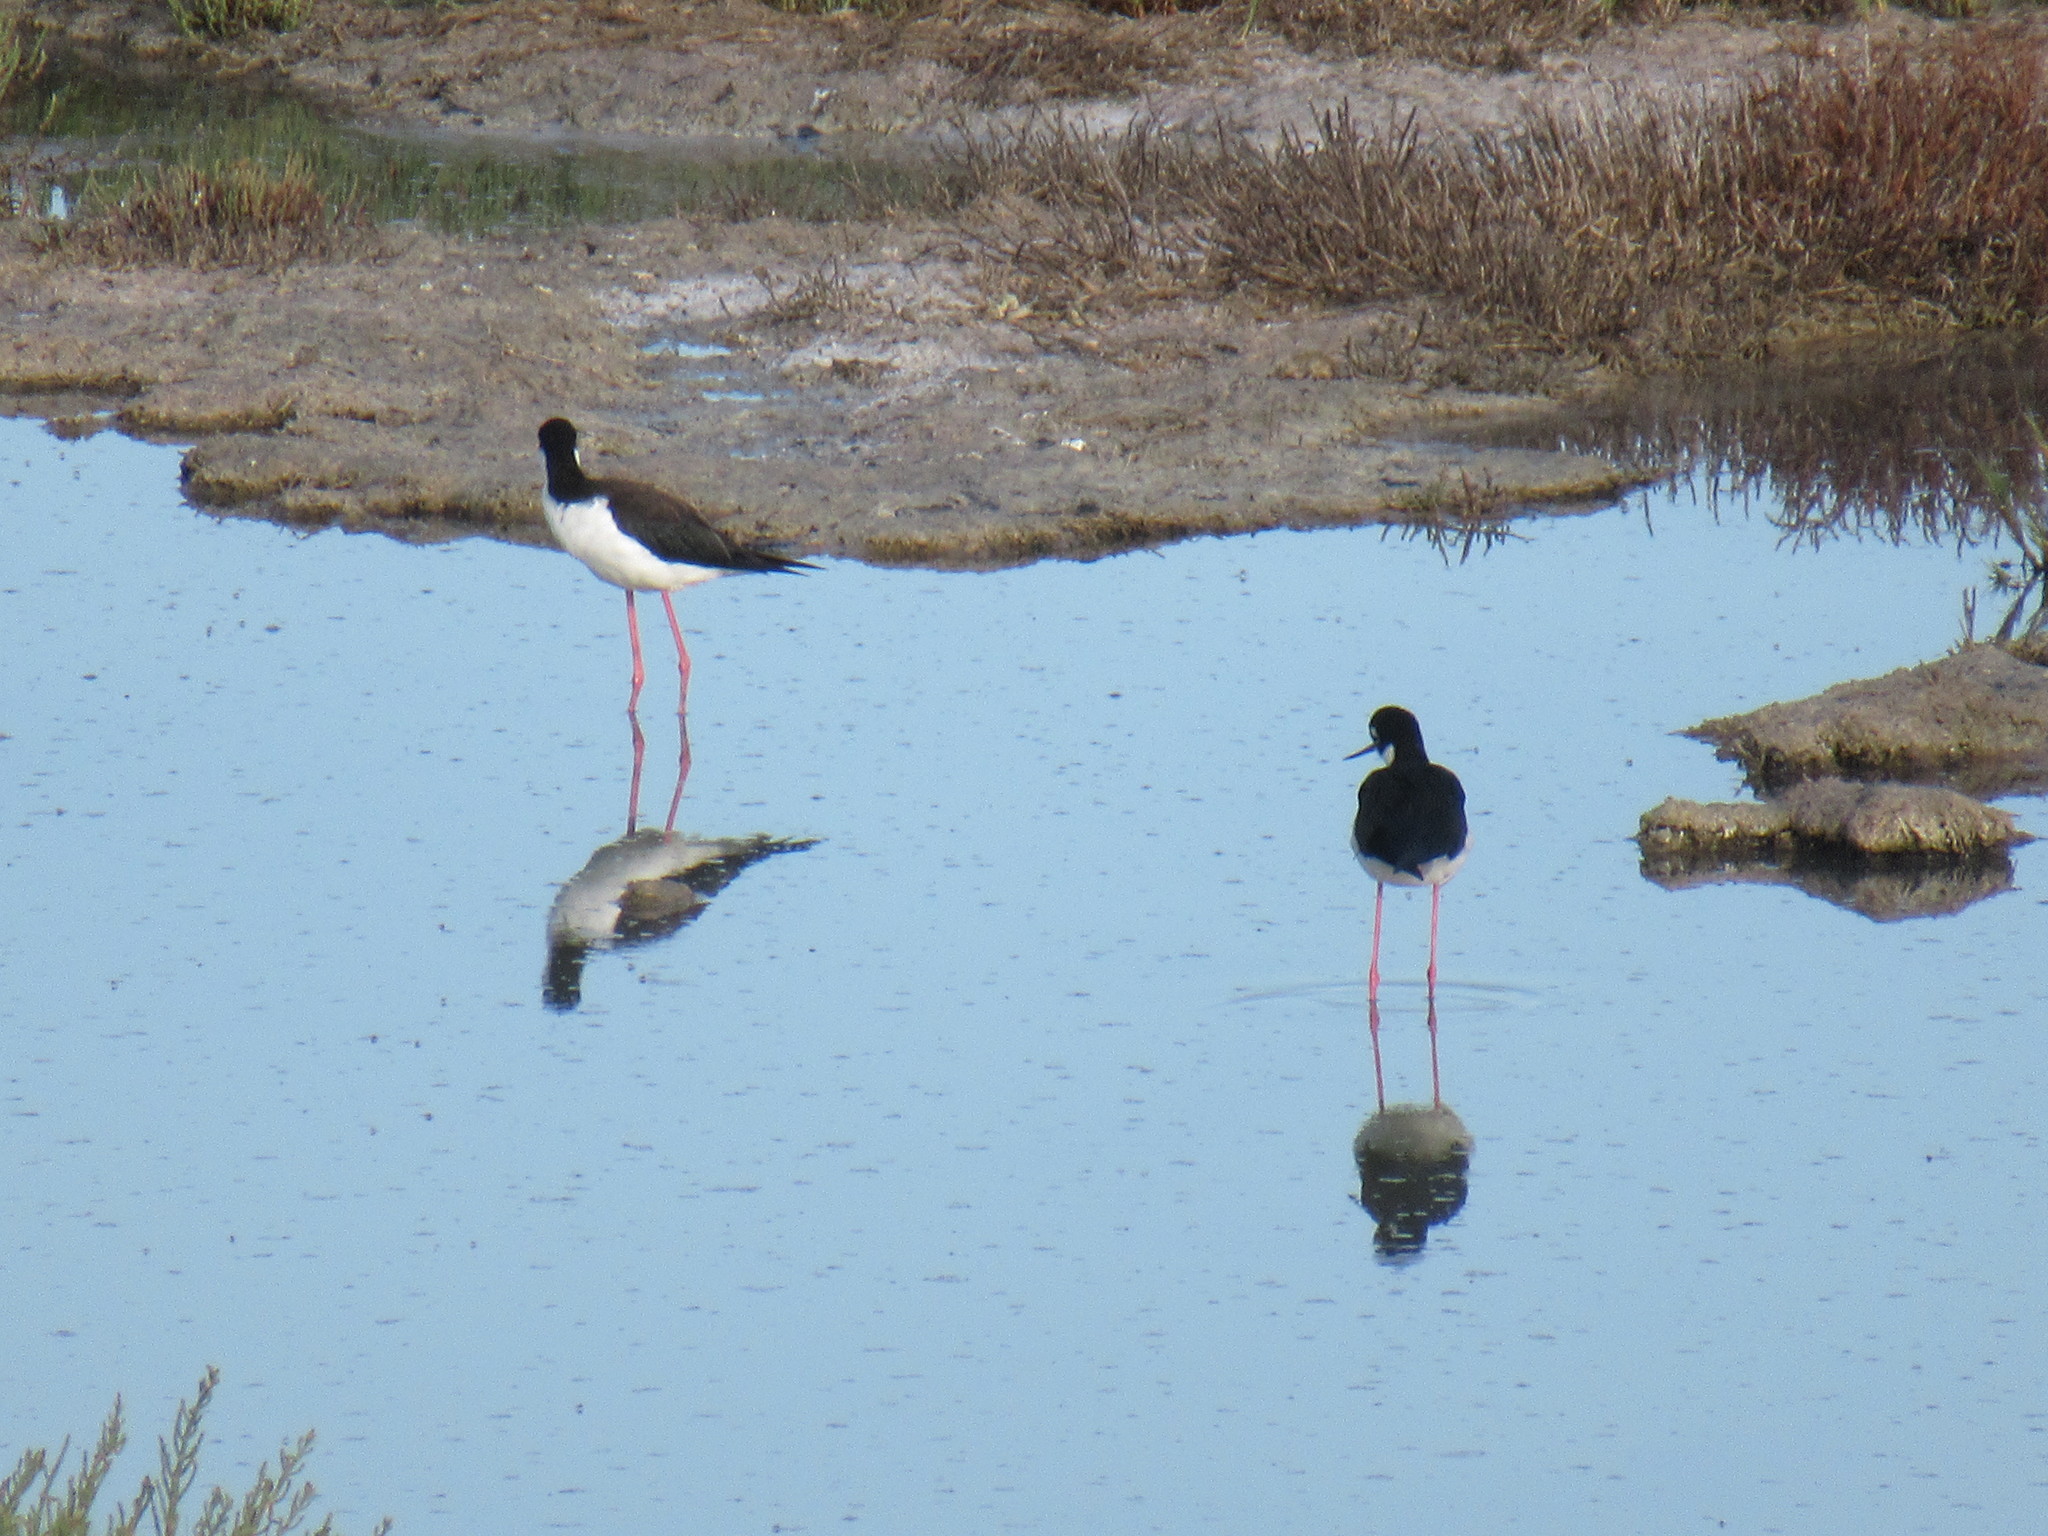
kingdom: Animalia
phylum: Chordata
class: Aves
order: Charadriiformes
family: Recurvirostridae
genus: Himantopus
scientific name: Himantopus mexicanus
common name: Black-necked stilt
